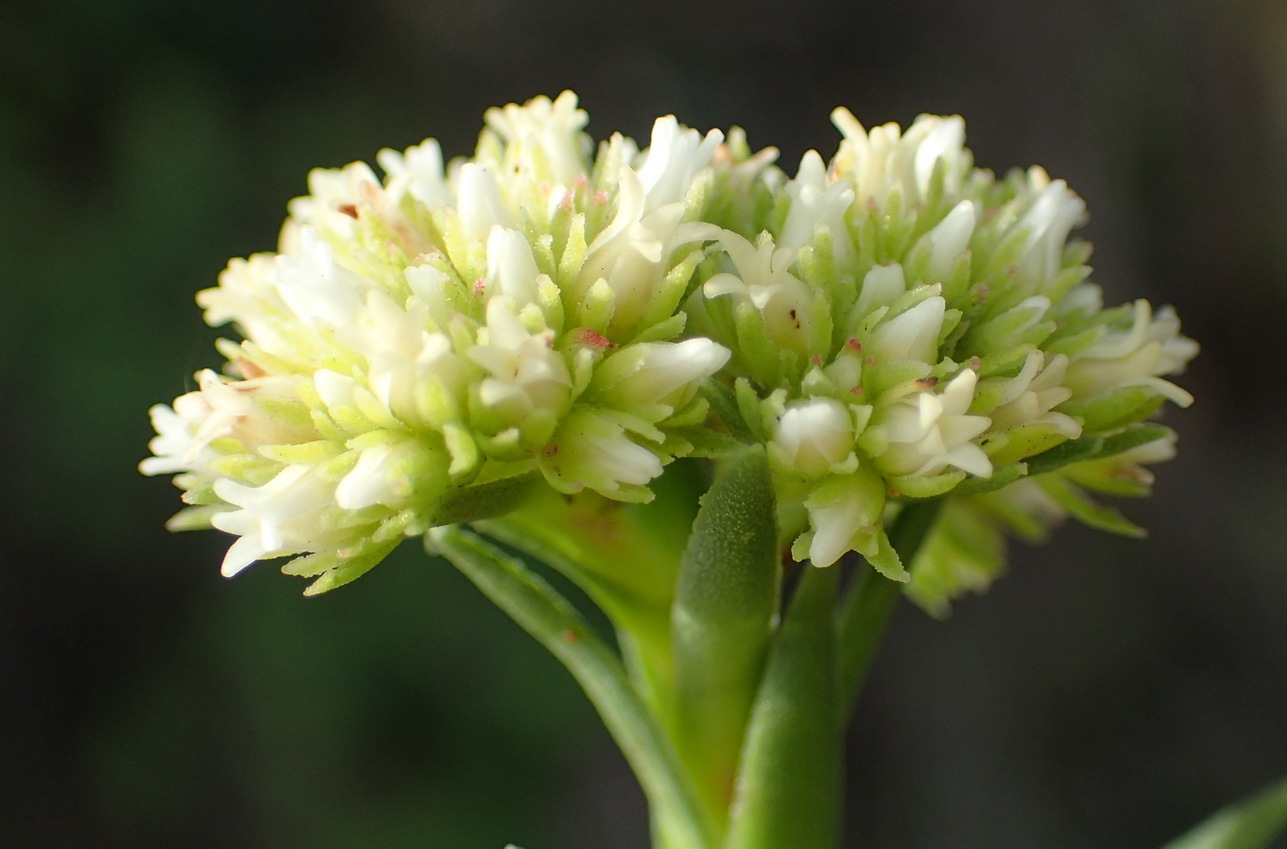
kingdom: Plantae
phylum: Tracheophyta
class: Magnoliopsida
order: Saxifragales
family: Crassulaceae
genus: Crassula
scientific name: Crassula subulata
